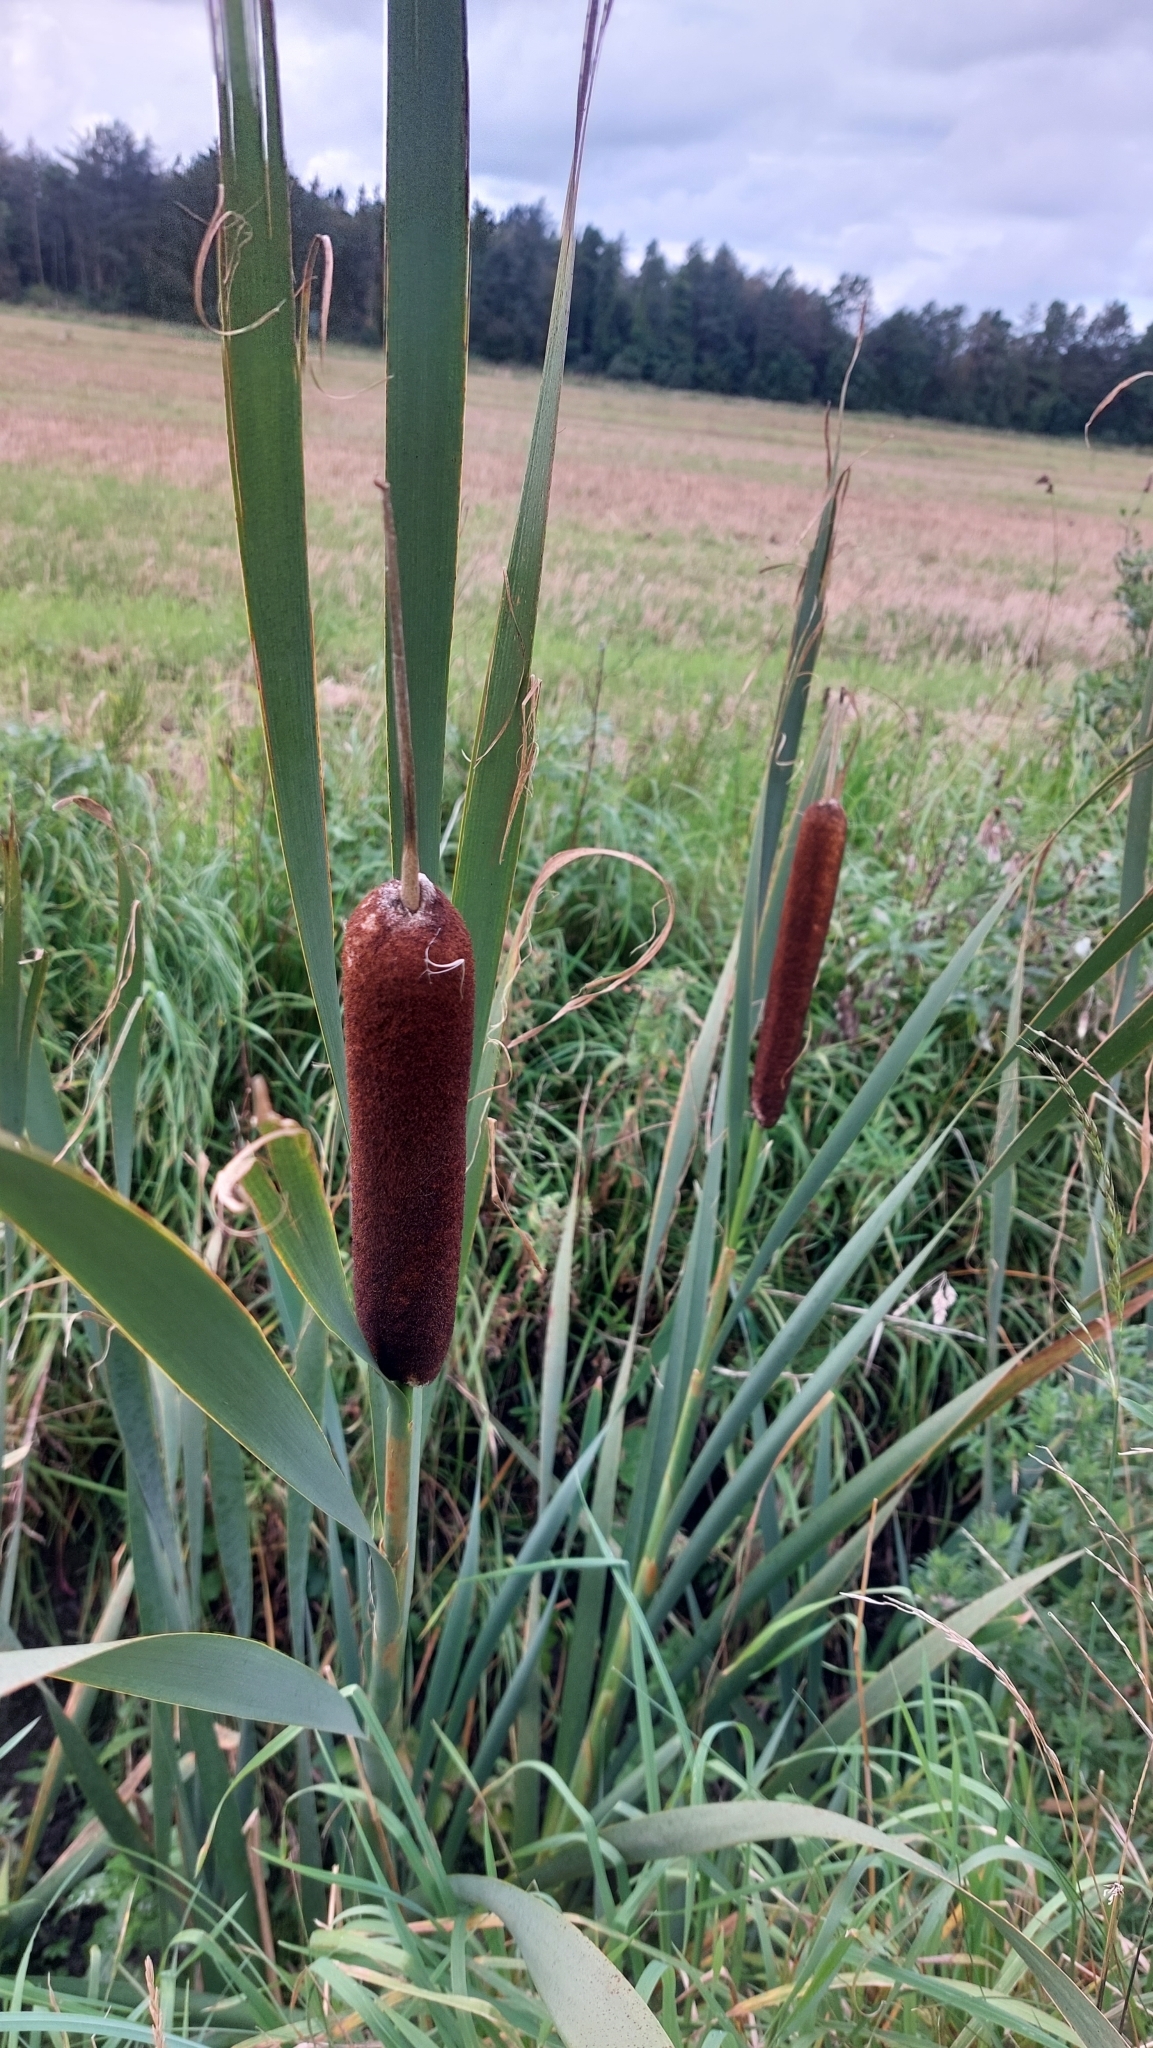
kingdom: Plantae
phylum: Tracheophyta
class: Liliopsida
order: Poales
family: Typhaceae
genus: Typha
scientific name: Typha latifolia
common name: Broadleaf cattail
